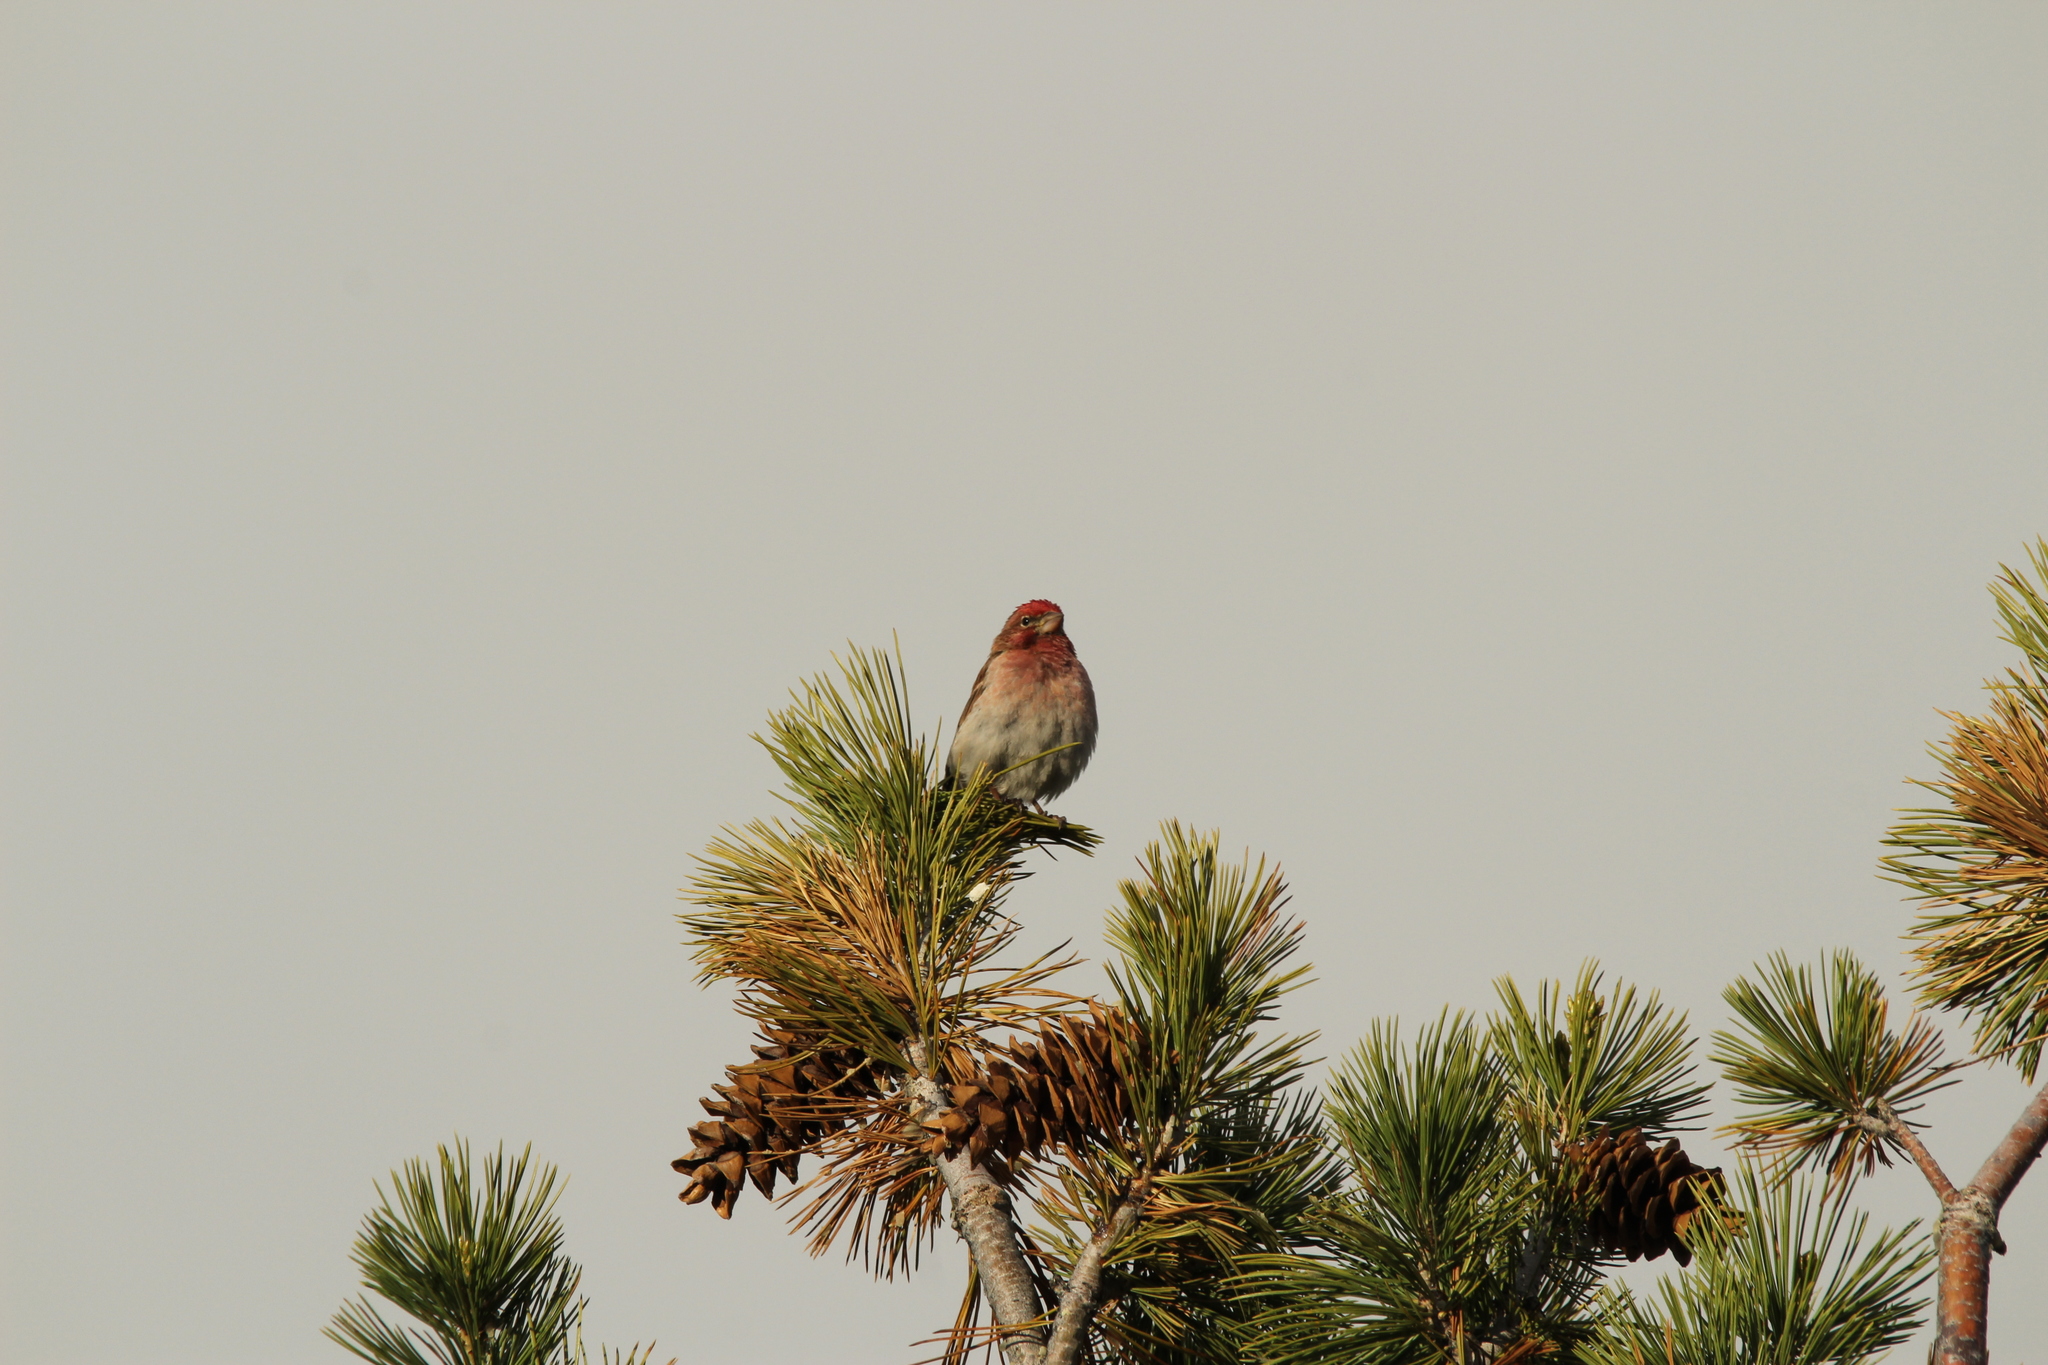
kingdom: Animalia
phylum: Chordata
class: Aves
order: Passeriformes
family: Fringillidae
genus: Haemorhous
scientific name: Haemorhous cassinii
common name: Cassin's finch
